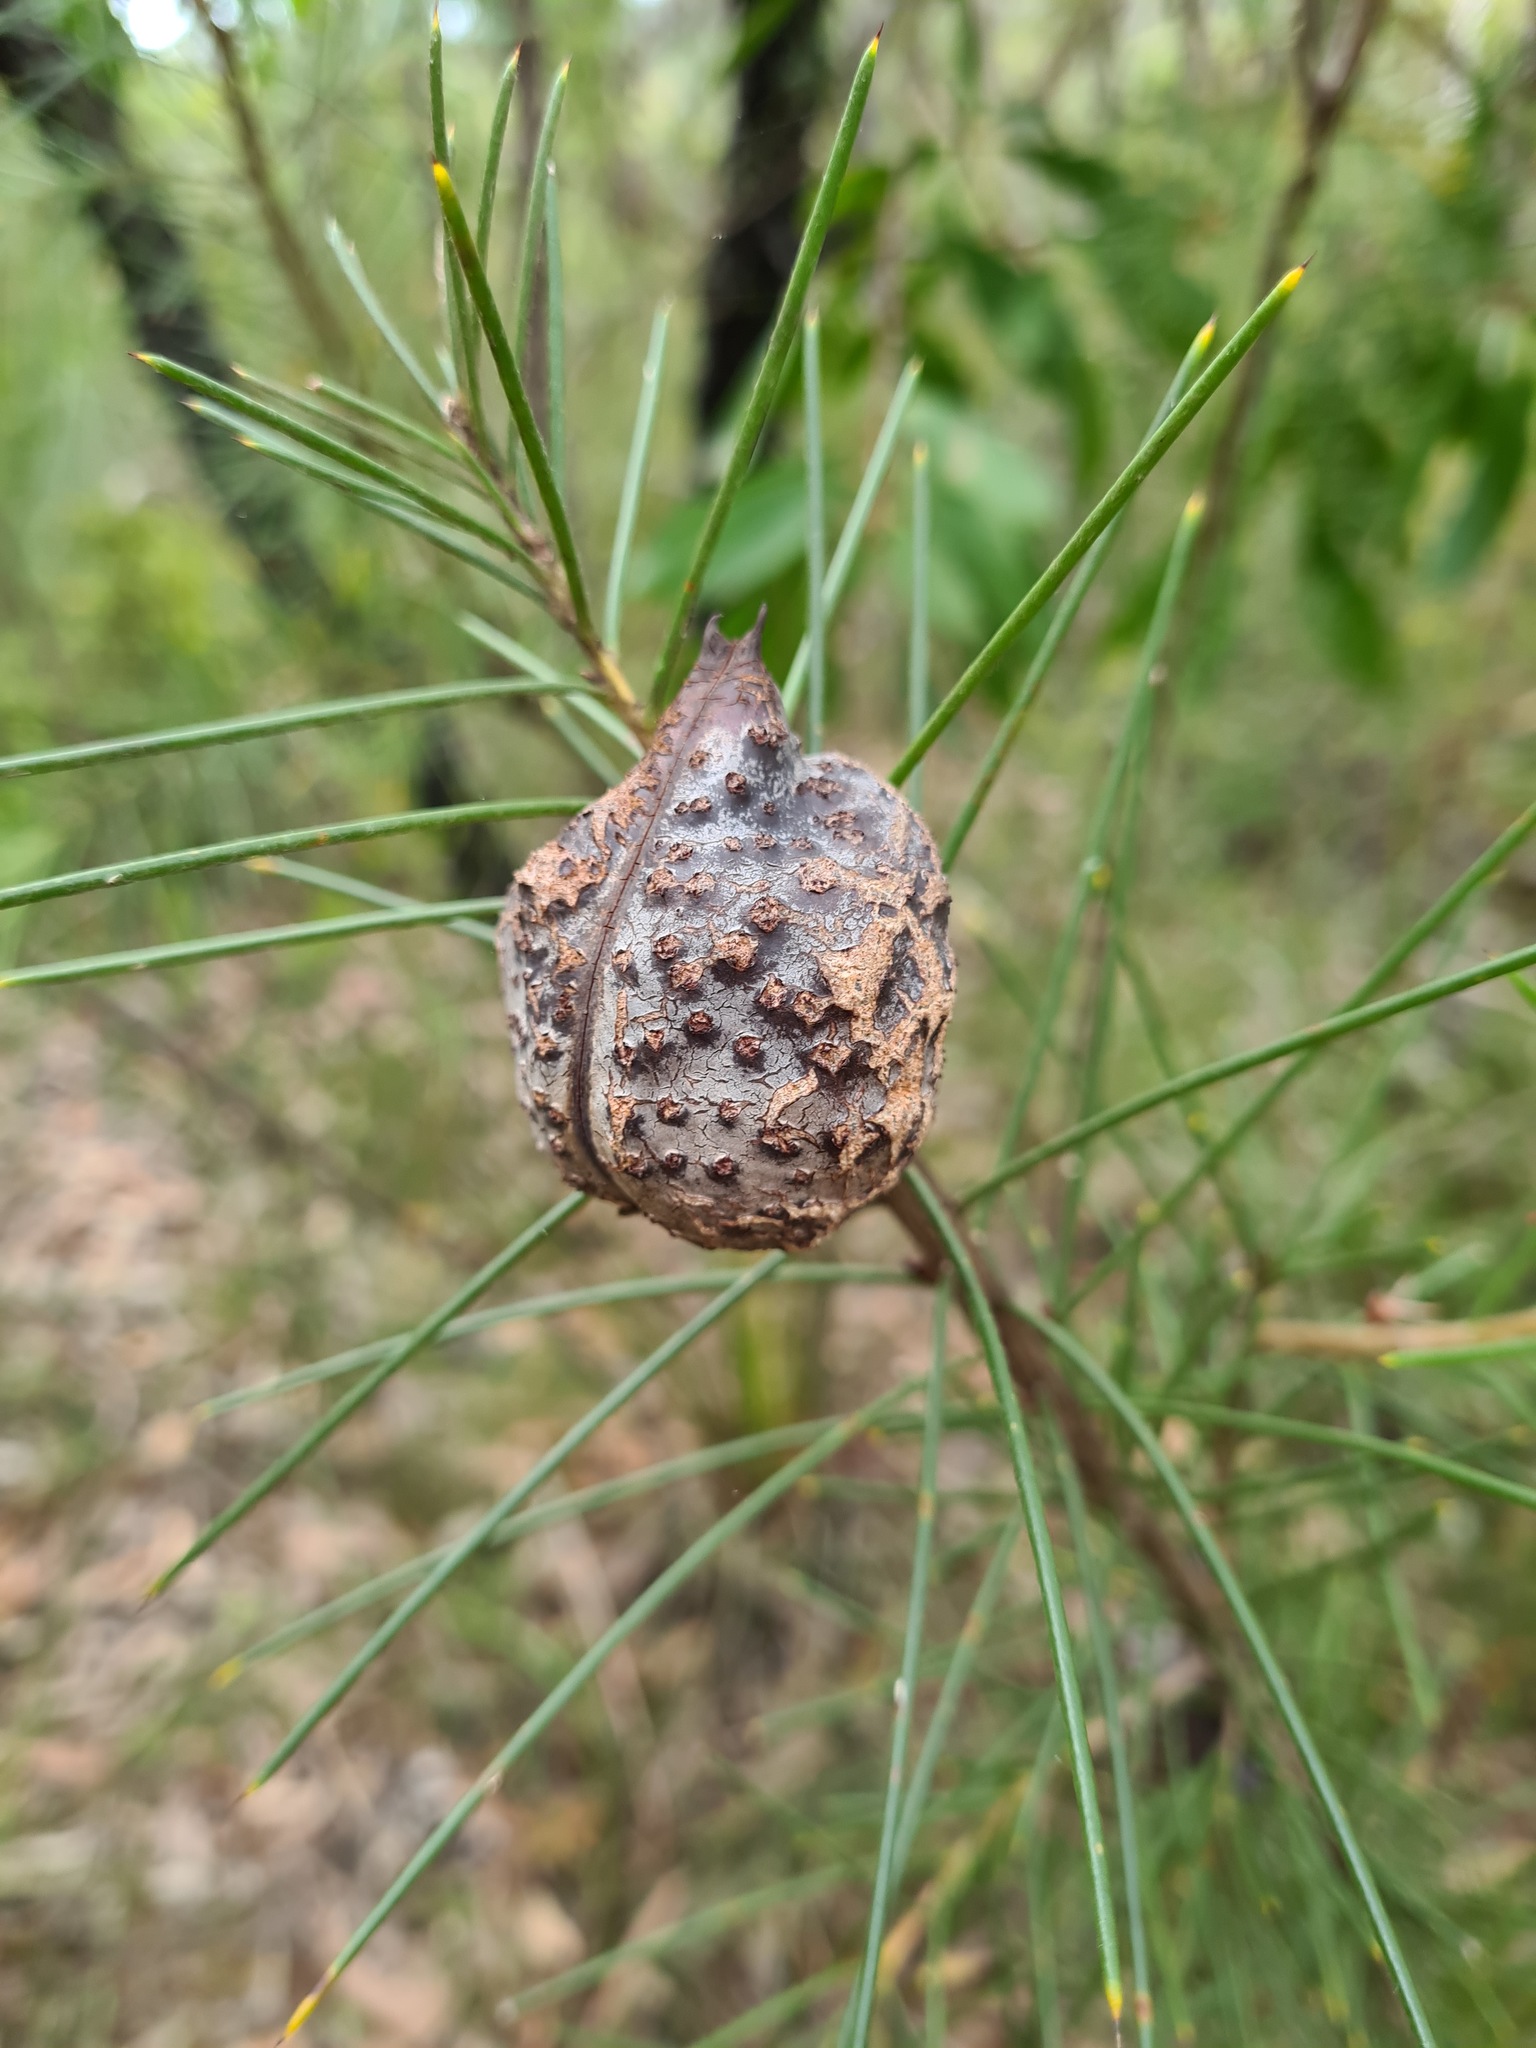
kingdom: Plantae
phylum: Tracheophyta
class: Magnoliopsida
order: Proteales
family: Proteaceae
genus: Hakea
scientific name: Hakea sericea
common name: Needle bush
